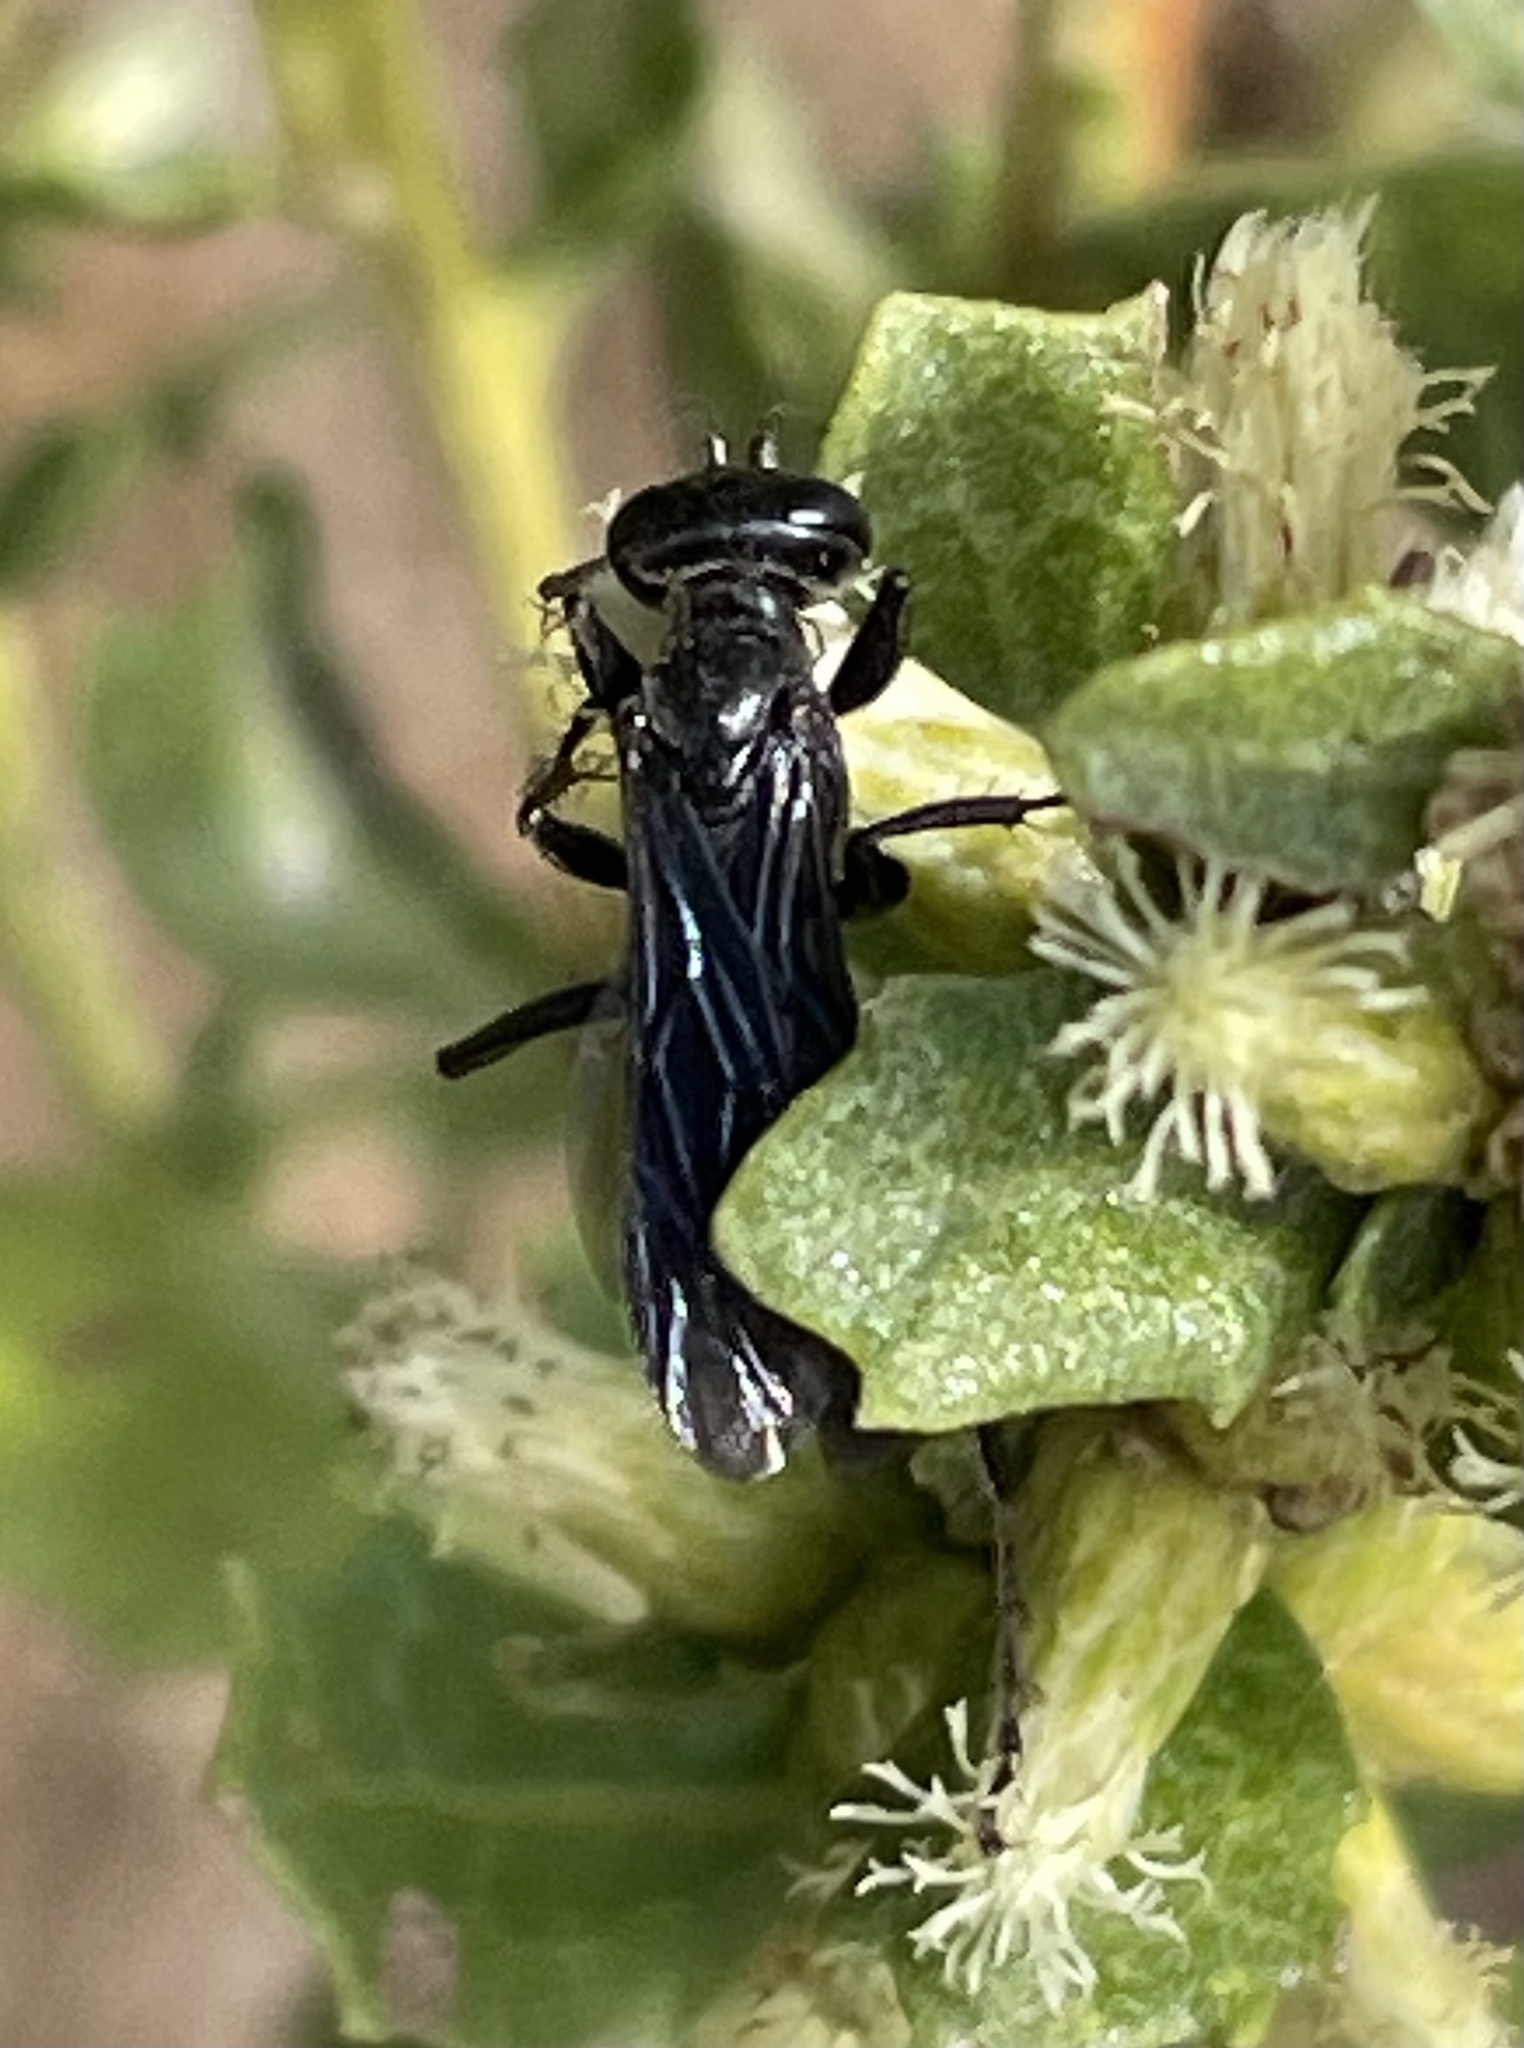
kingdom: Plantae
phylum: Tracheophyta
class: Magnoliopsida
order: Asterales
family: Asteraceae
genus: Baccharis
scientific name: Baccharis pilularis
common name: Coyotebrush
